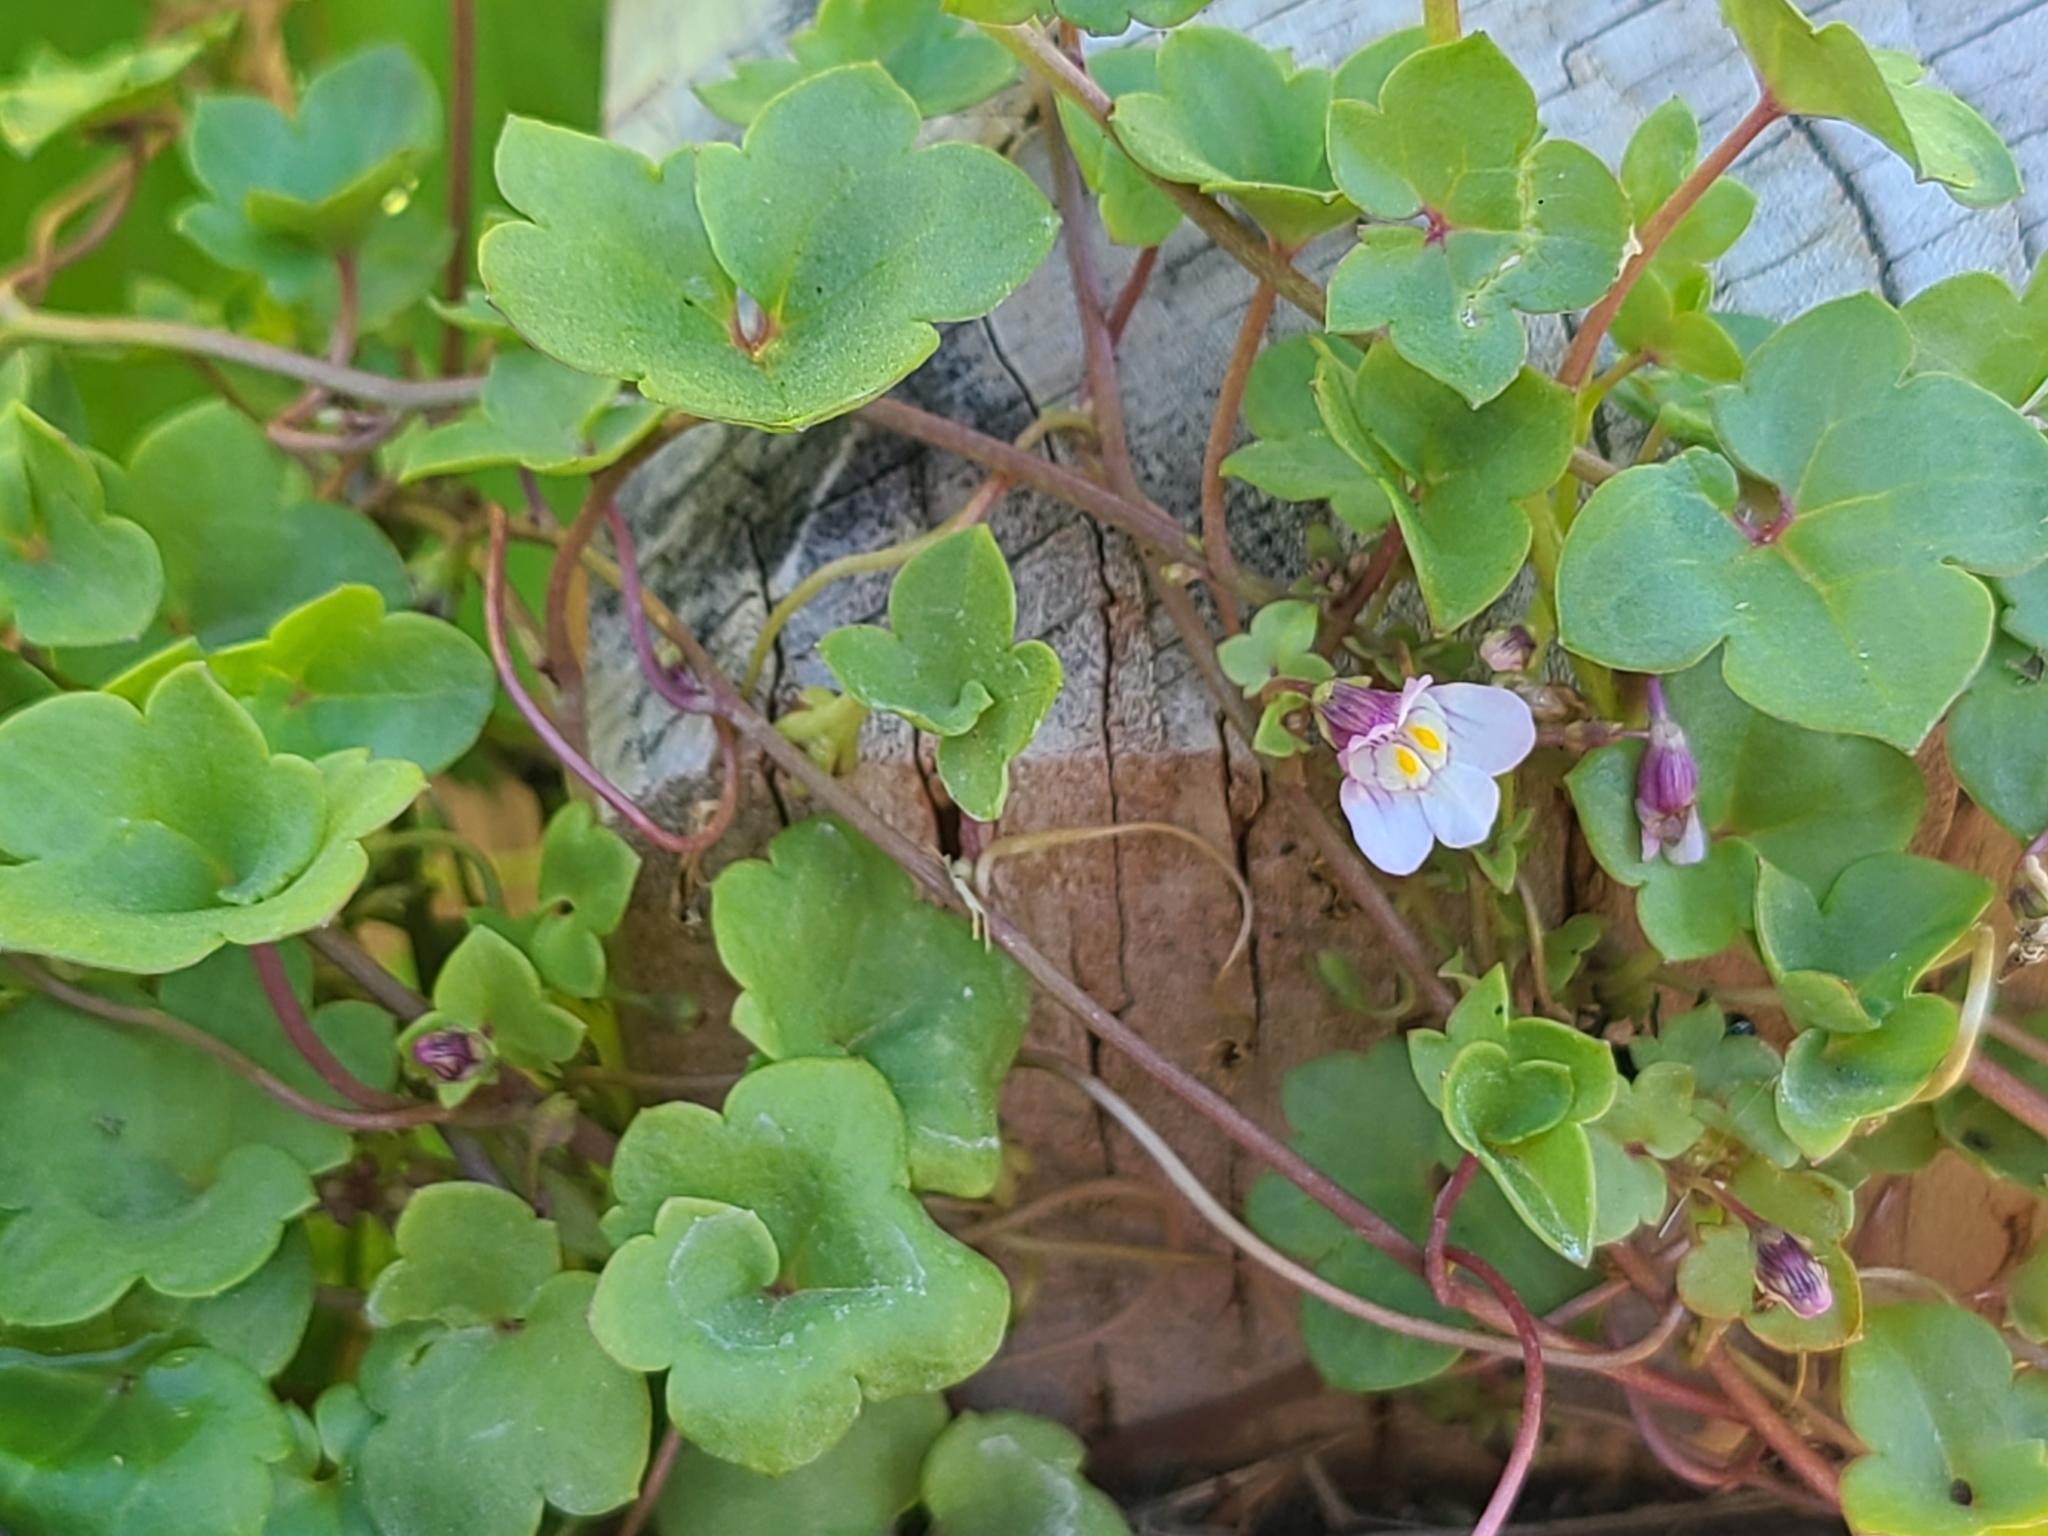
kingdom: Plantae
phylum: Tracheophyta
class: Magnoliopsida
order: Lamiales
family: Plantaginaceae
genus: Cymbalaria
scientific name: Cymbalaria muralis
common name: Ivy-leaved toadflax
